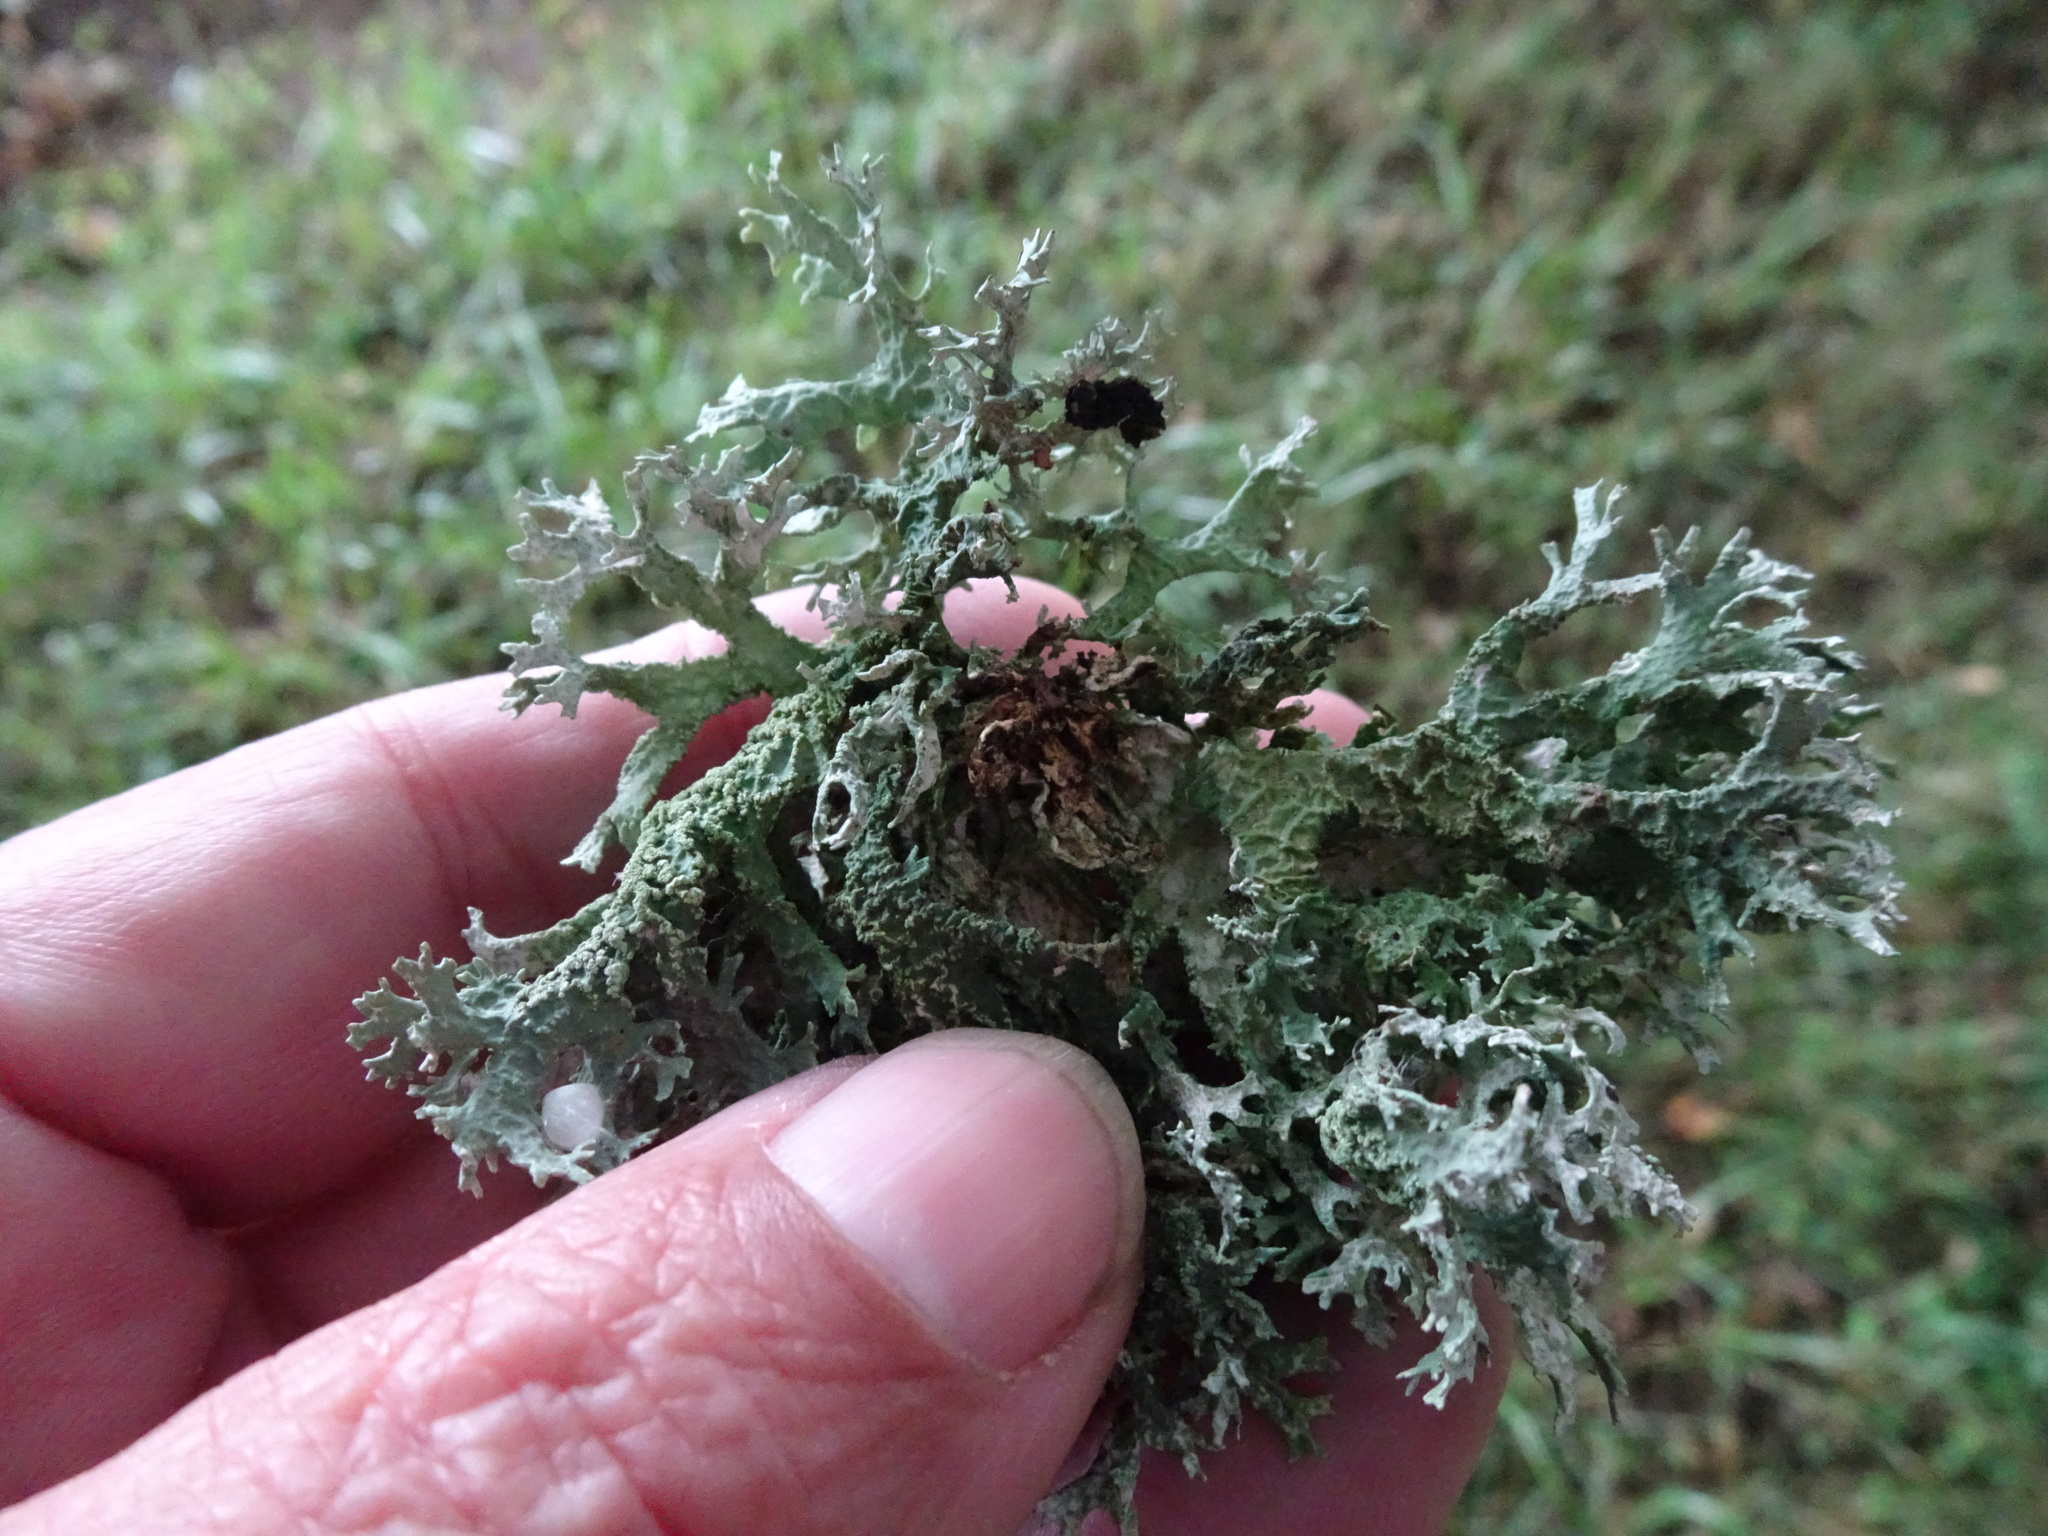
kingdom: Fungi
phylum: Ascomycota
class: Lecanoromycetes
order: Lecanorales
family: Parmeliaceae
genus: Evernia
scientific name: Evernia prunastri
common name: Oak moss
